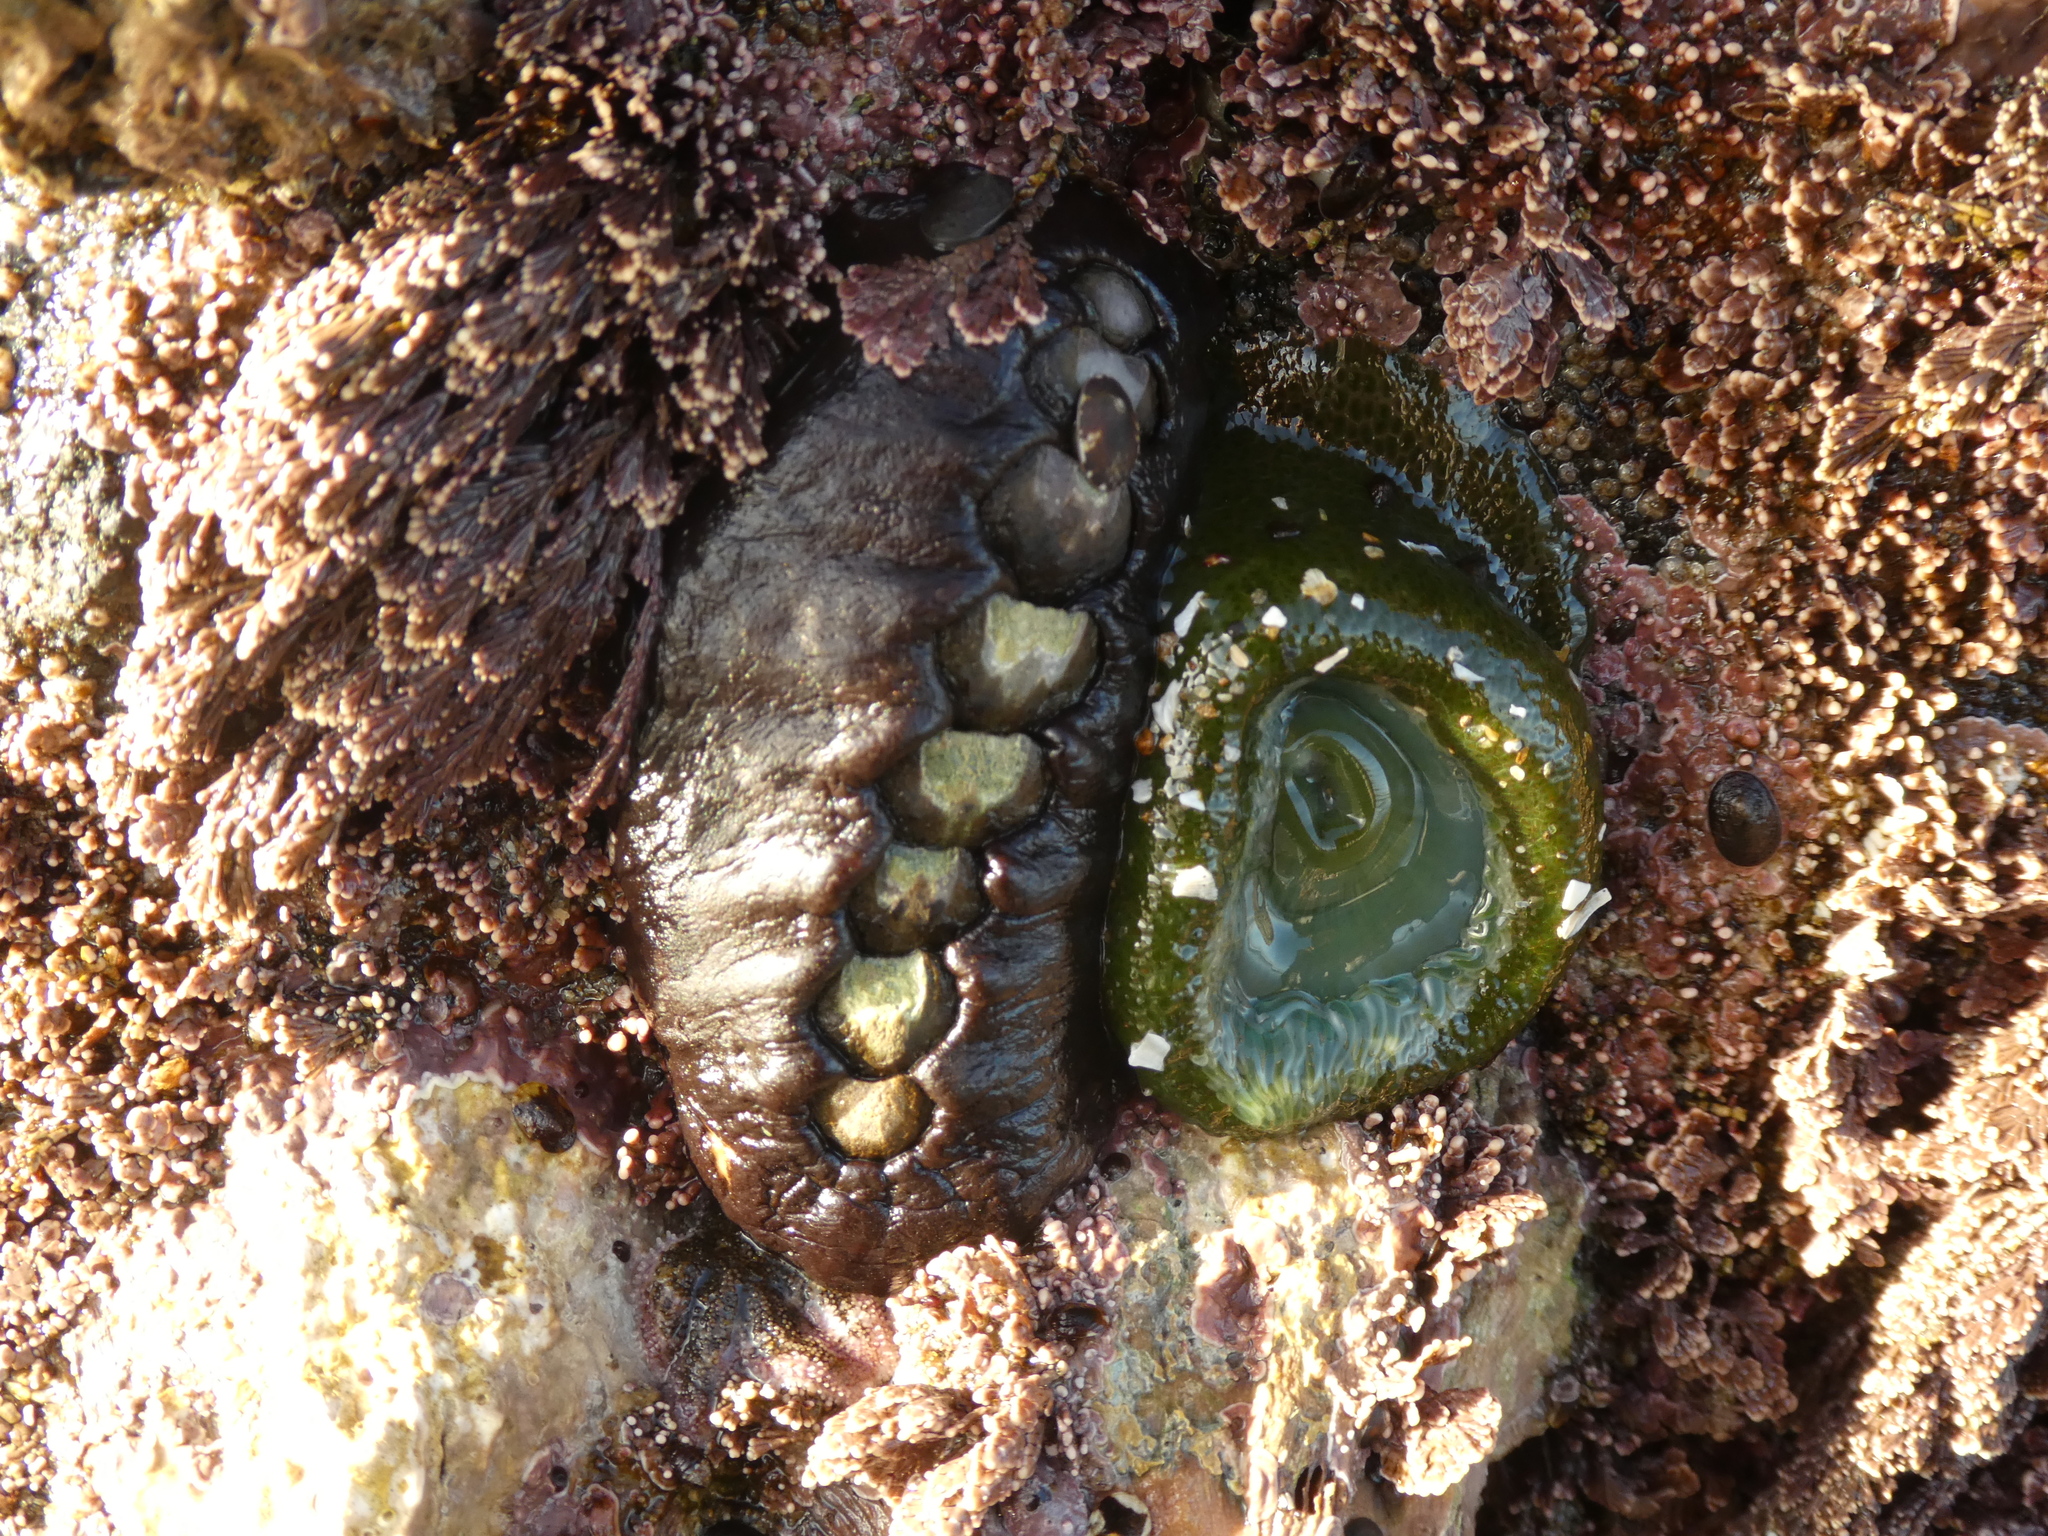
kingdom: Animalia
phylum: Mollusca
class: Polyplacophora
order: Chitonida
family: Mopaliidae
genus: Katharina
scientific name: Katharina tunicata
